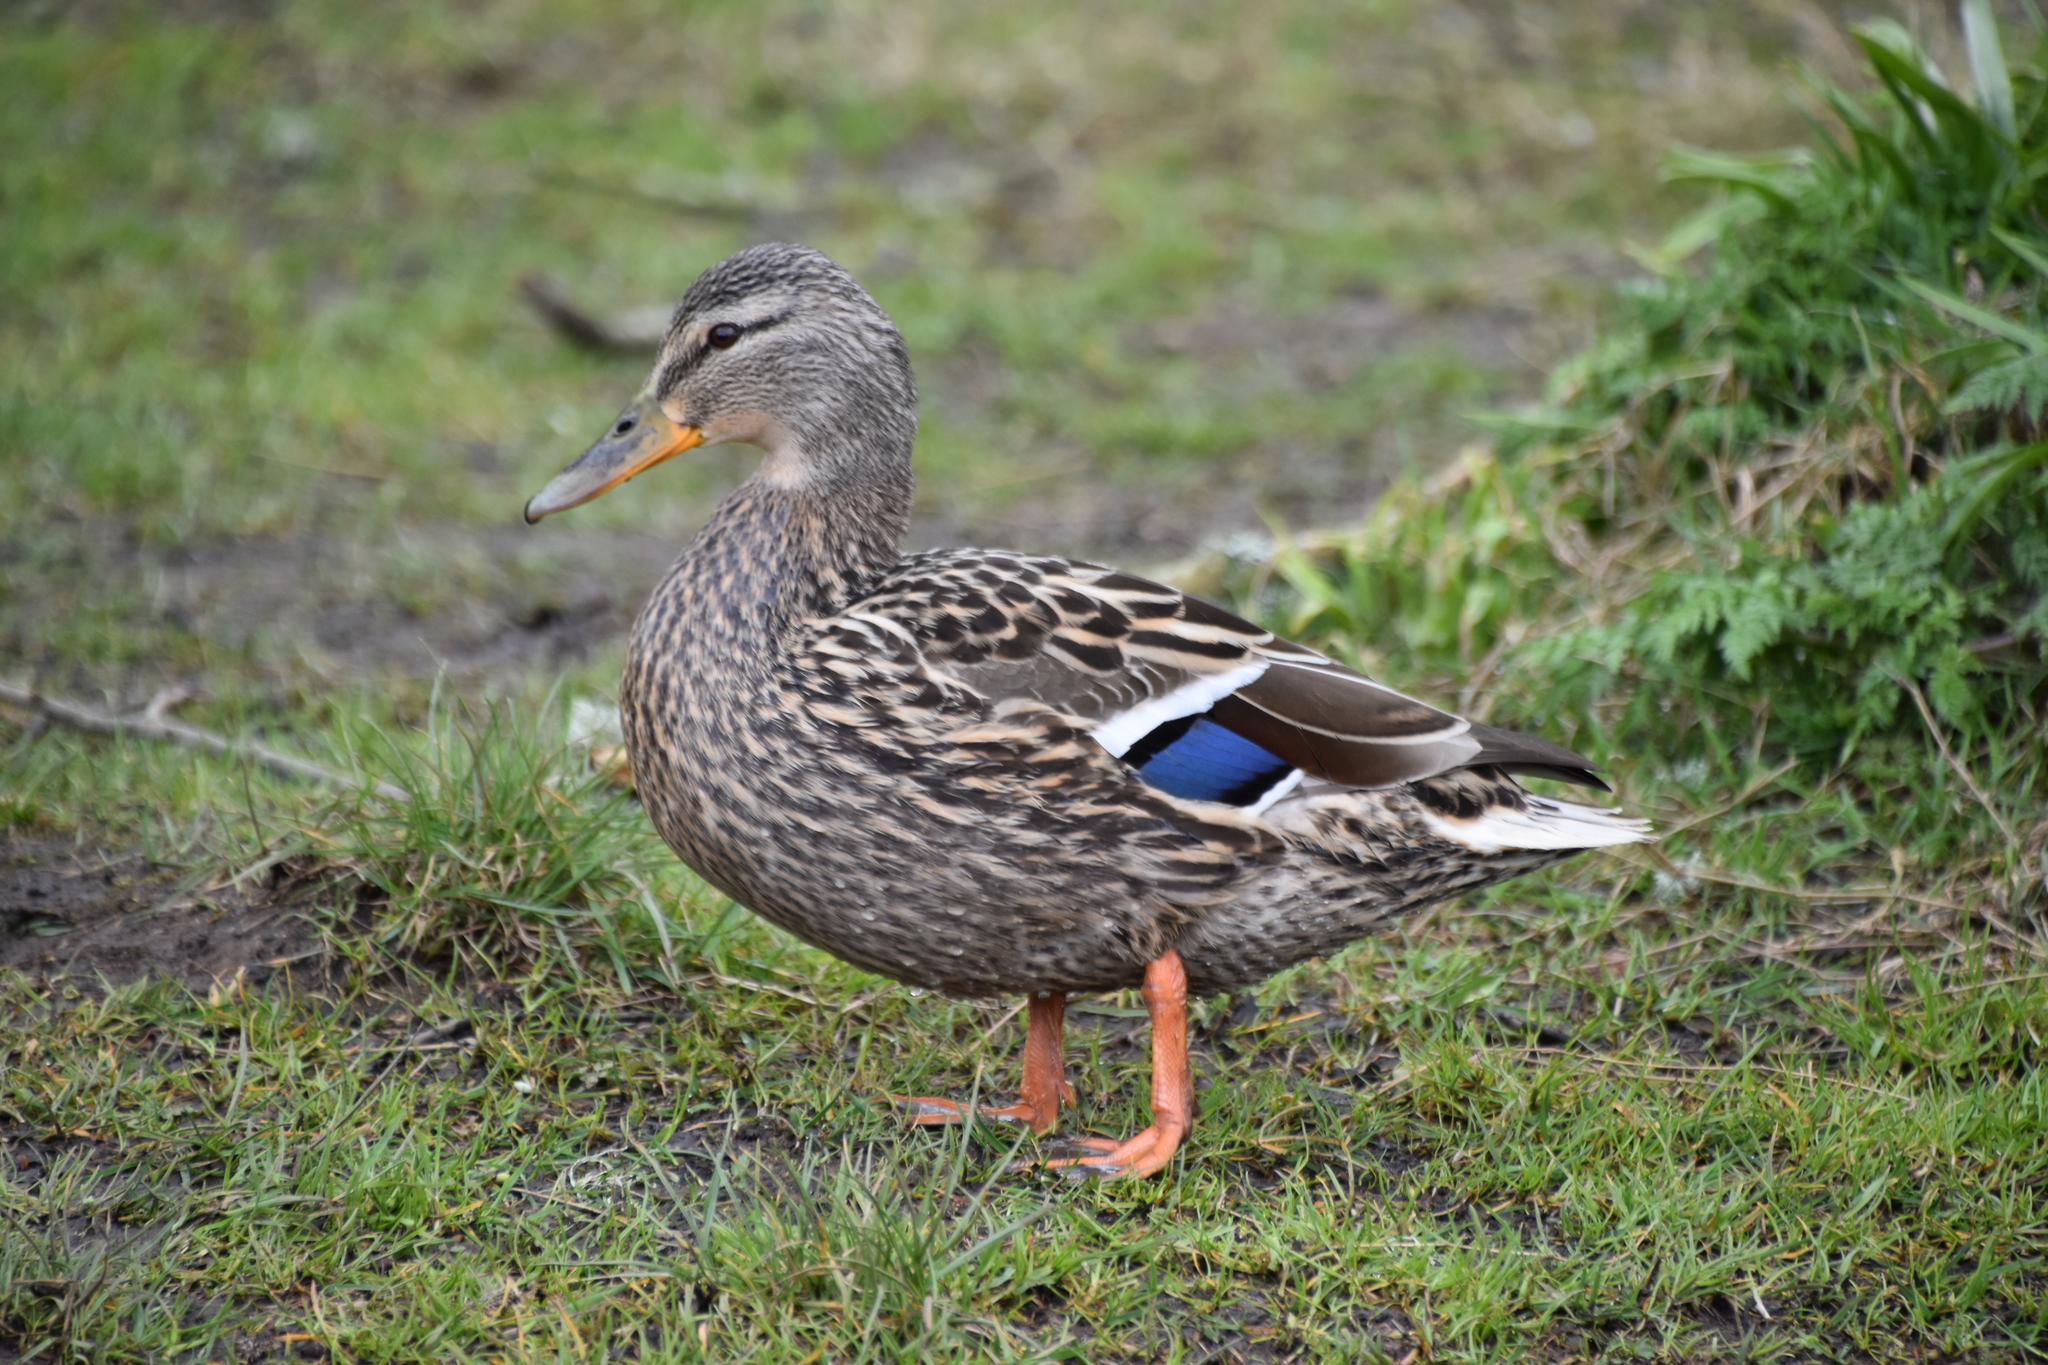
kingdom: Animalia
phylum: Chordata
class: Aves
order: Anseriformes
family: Anatidae
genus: Anas
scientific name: Anas platyrhynchos
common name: Mallard
